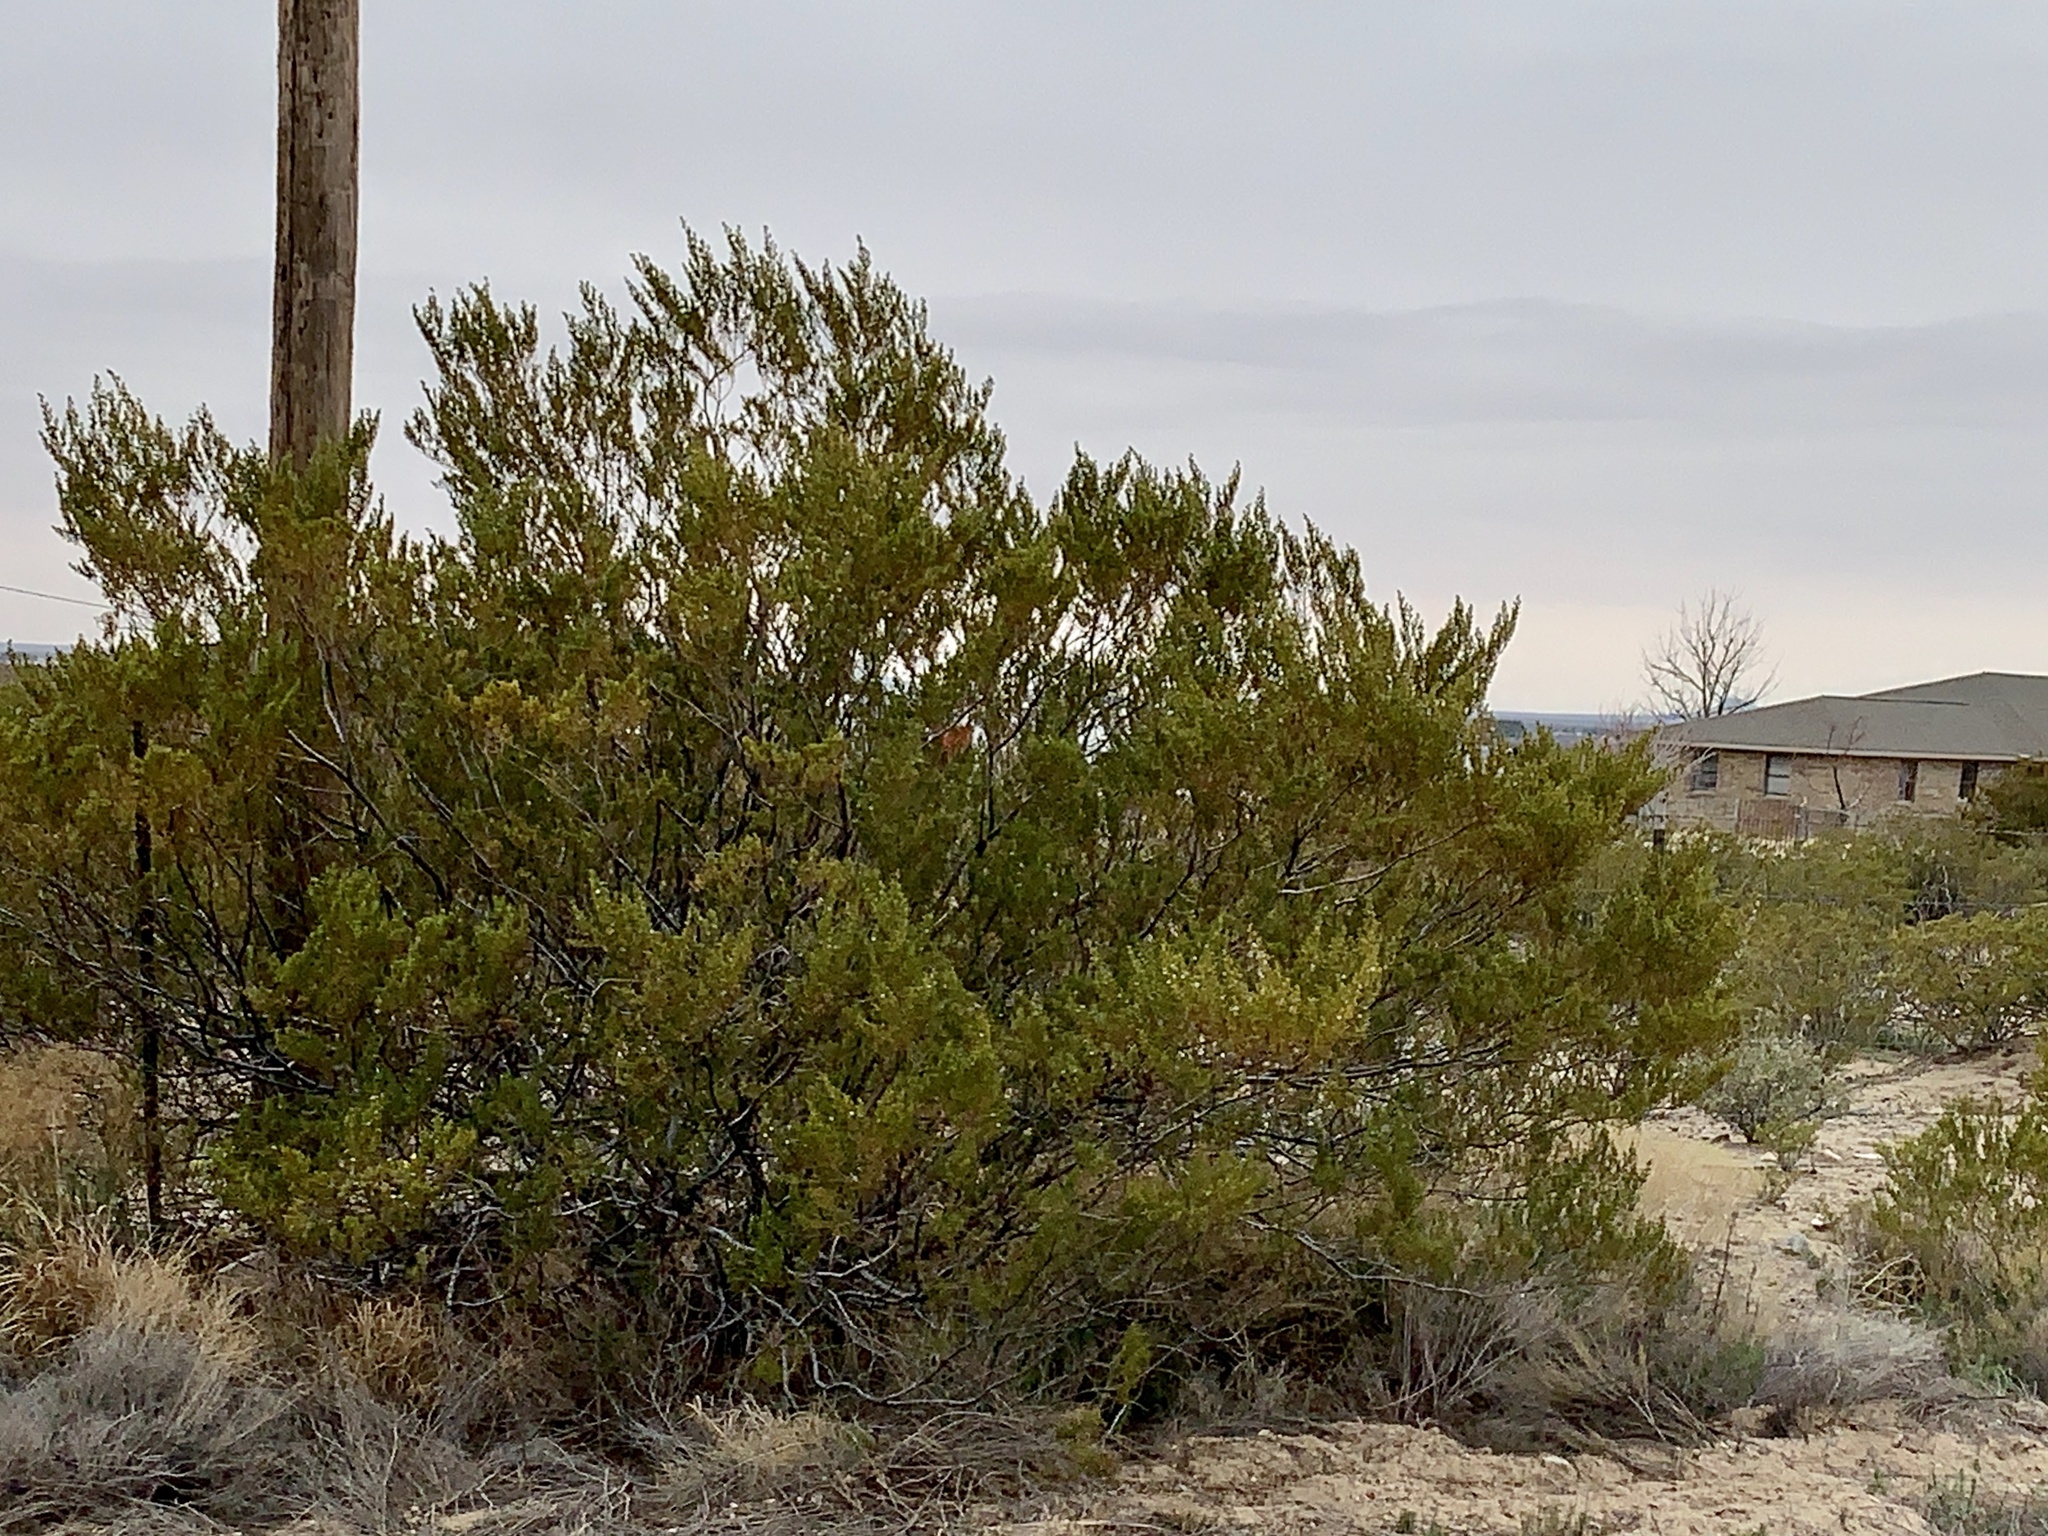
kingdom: Plantae
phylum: Tracheophyta
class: Magnoliopsida
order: Zygophyllales
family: Zygophyllaceae
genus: Larrea
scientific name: Larrea tridentata
